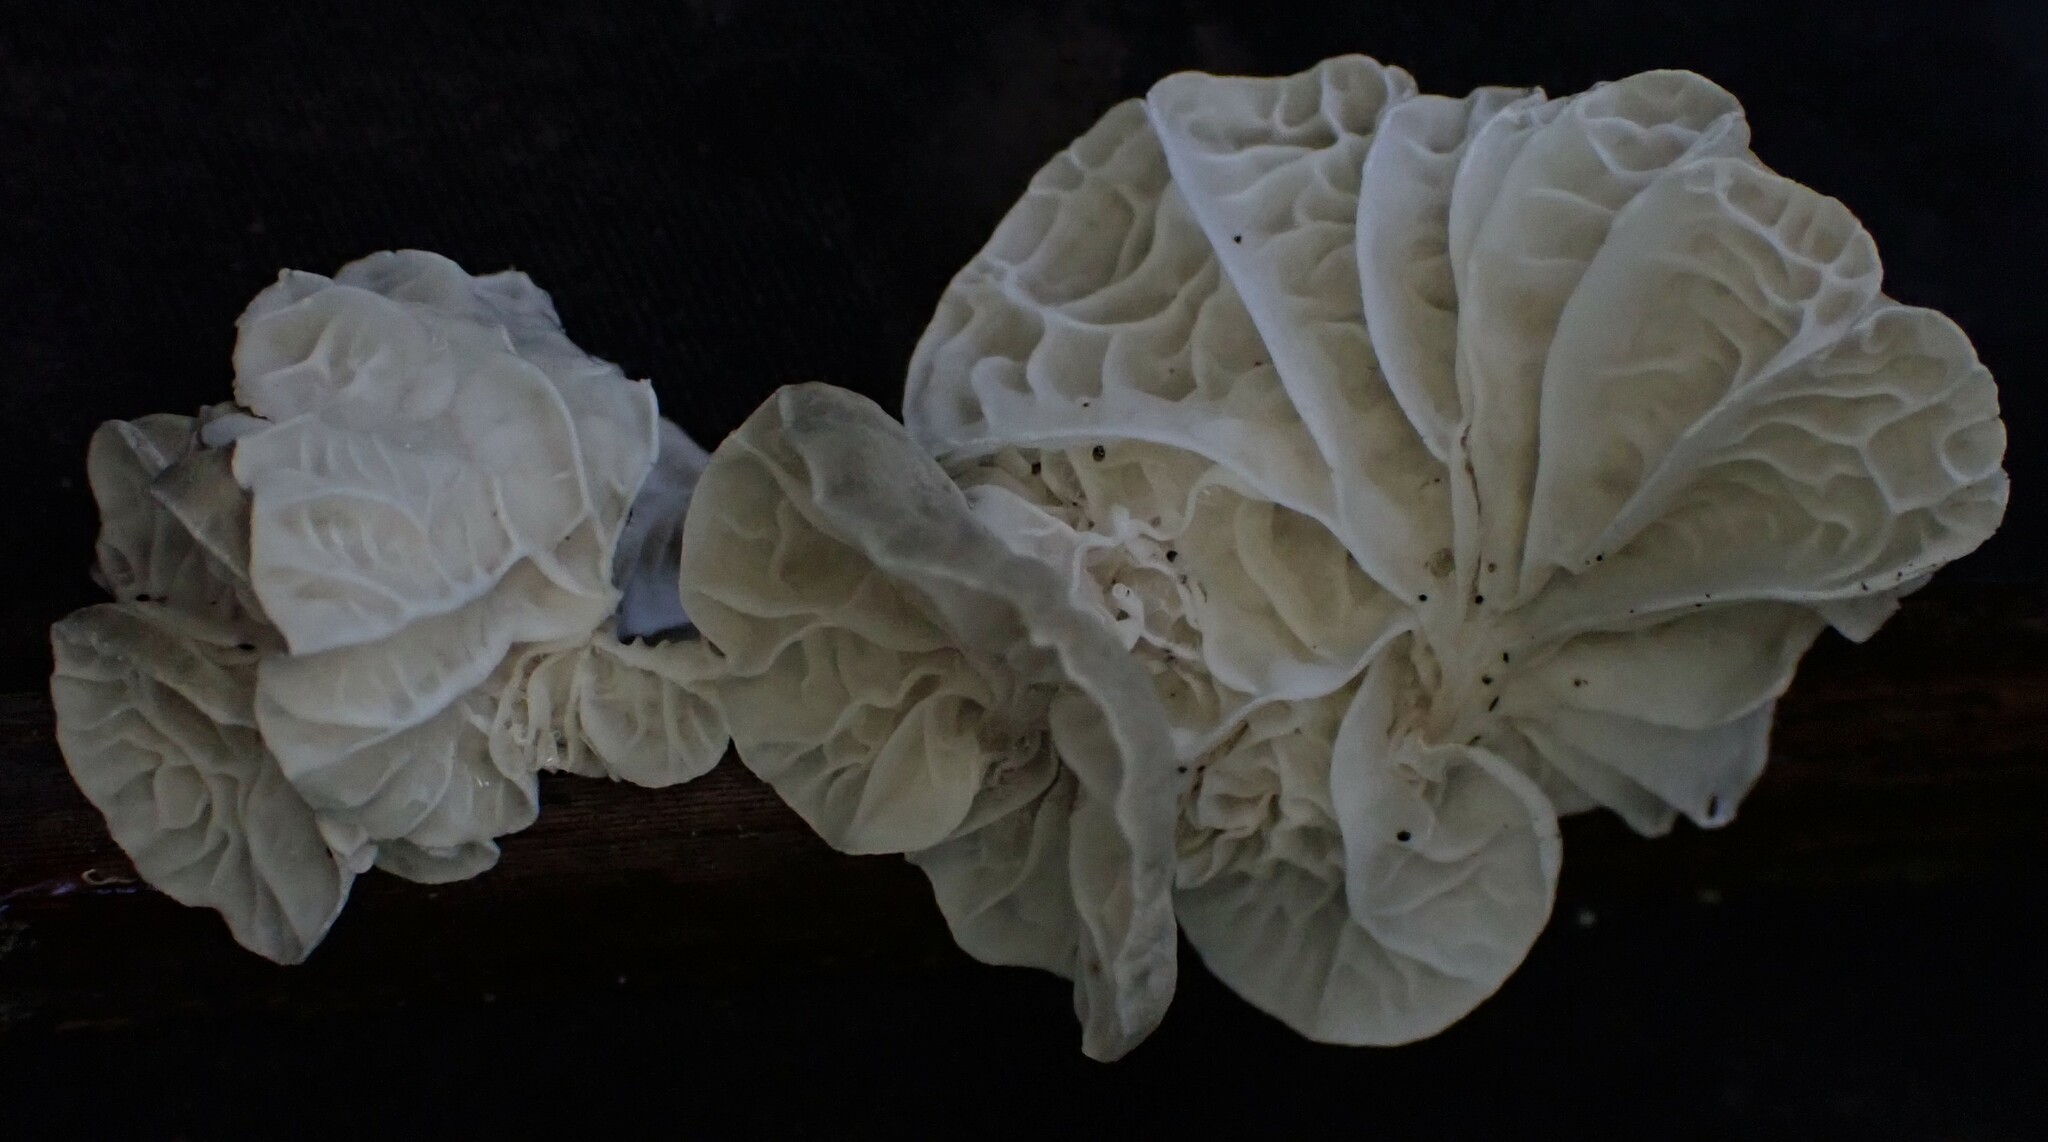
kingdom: Fungi
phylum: Basidiomycota
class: Agaricomycetes
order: Agaricales
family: Marasmiaceae
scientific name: Marasmiaceae
